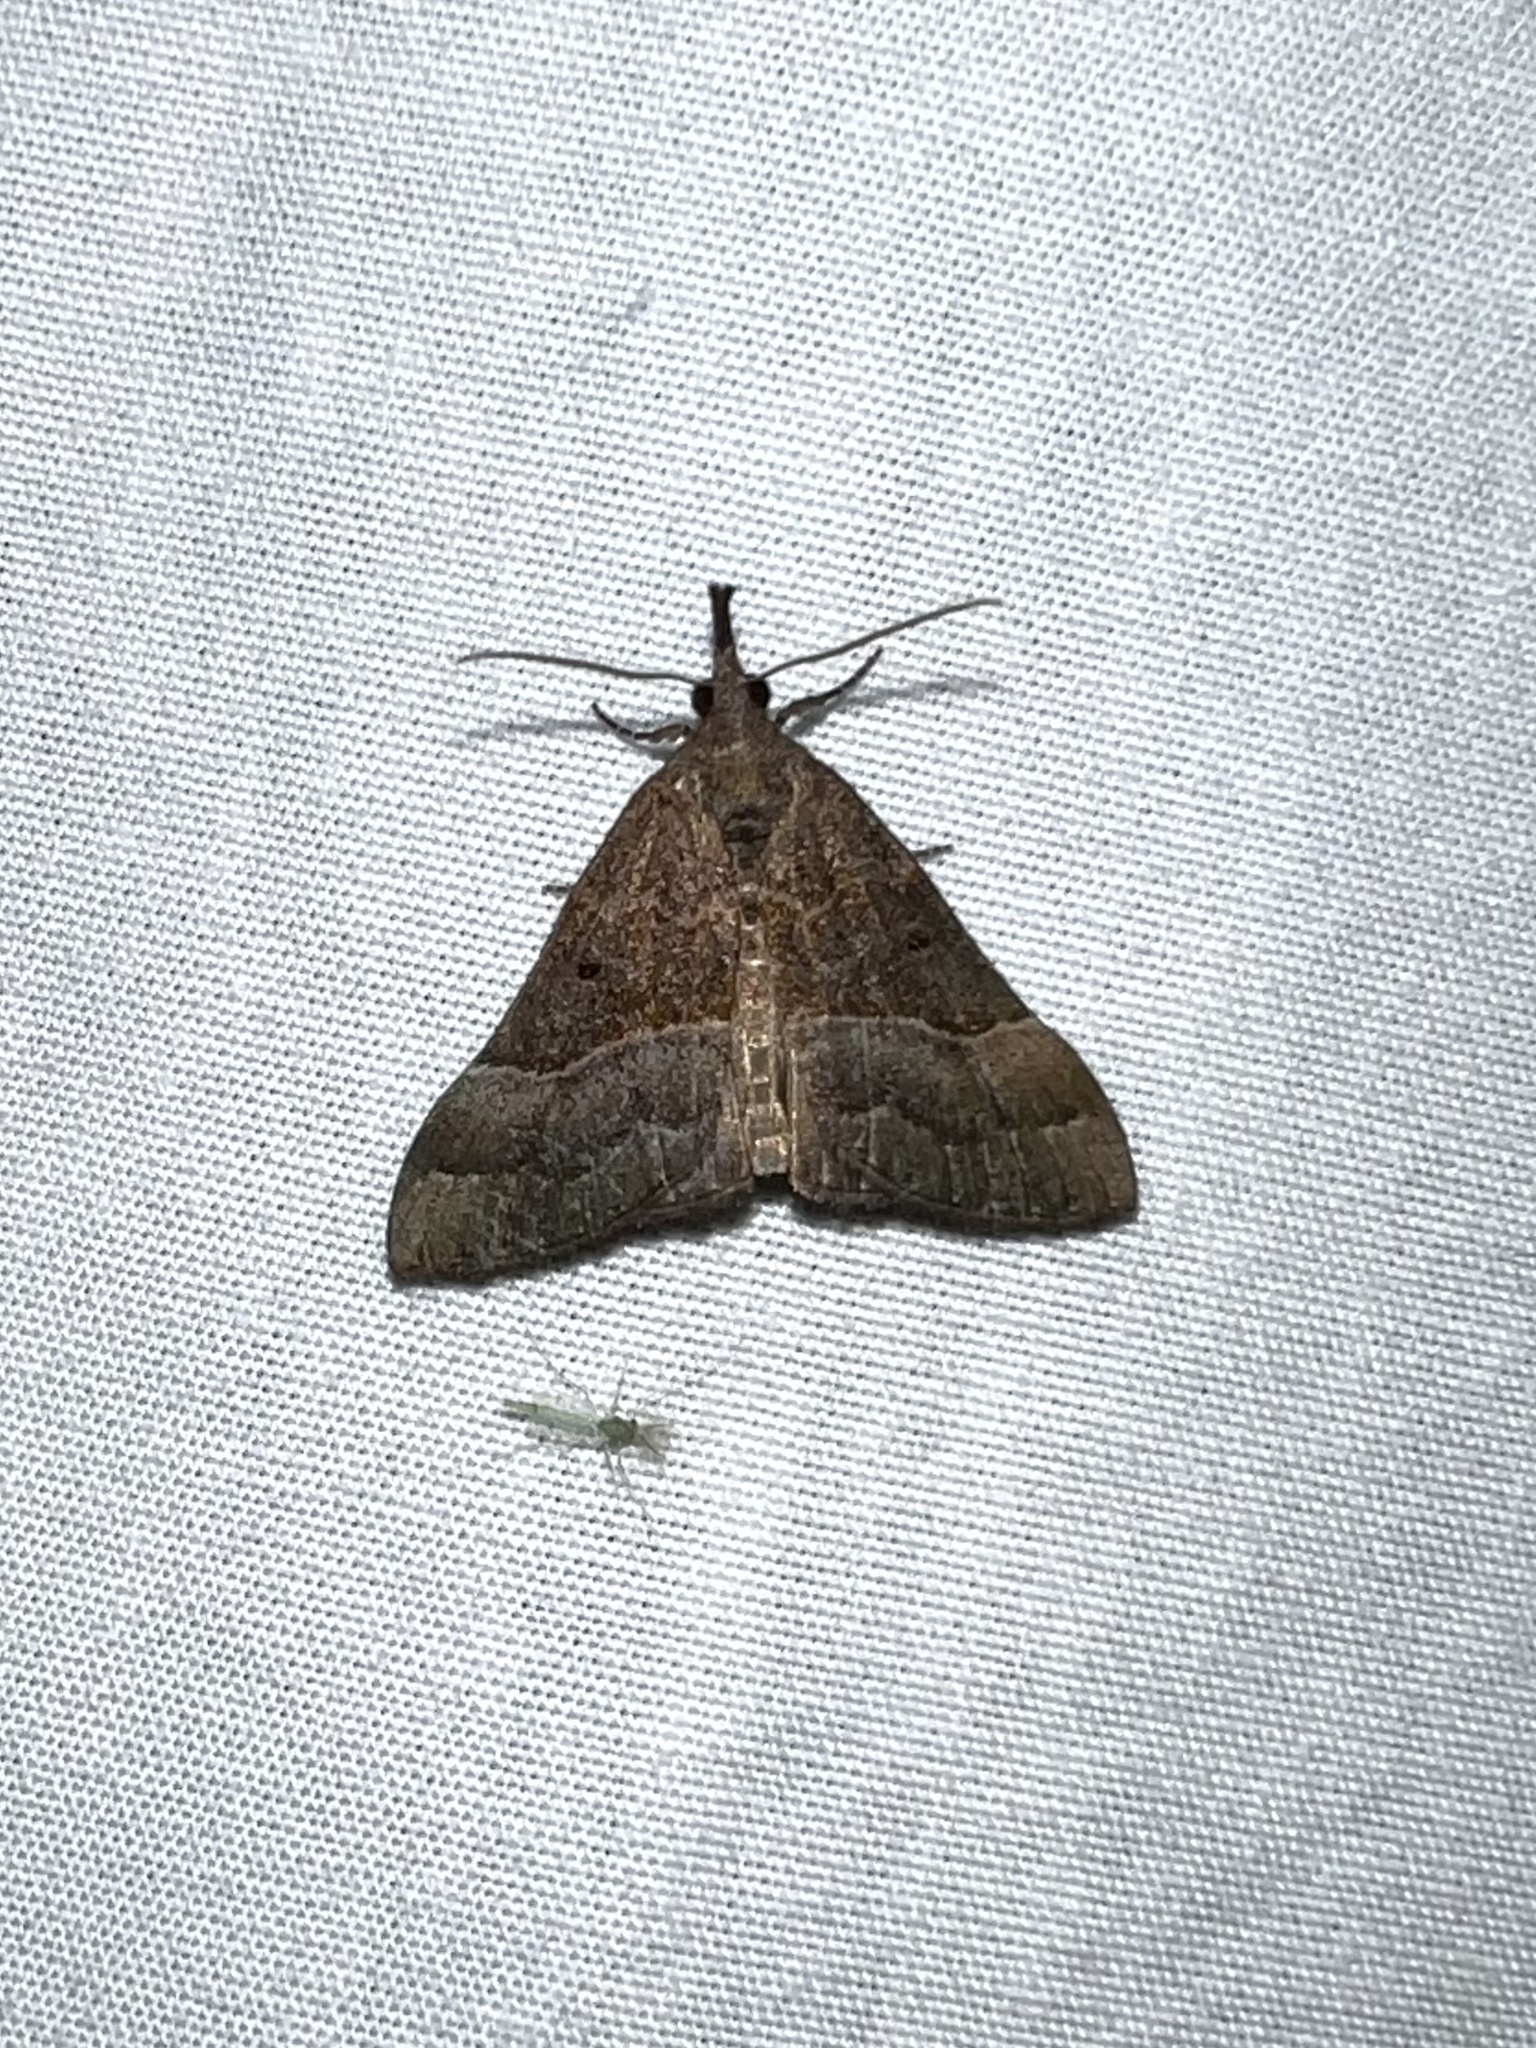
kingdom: Animalia
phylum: Arthropoda
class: Insecta
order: Lepidoptera
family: Erebidae
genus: Hypena
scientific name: Hypena eductalis
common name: Red-footed snout
